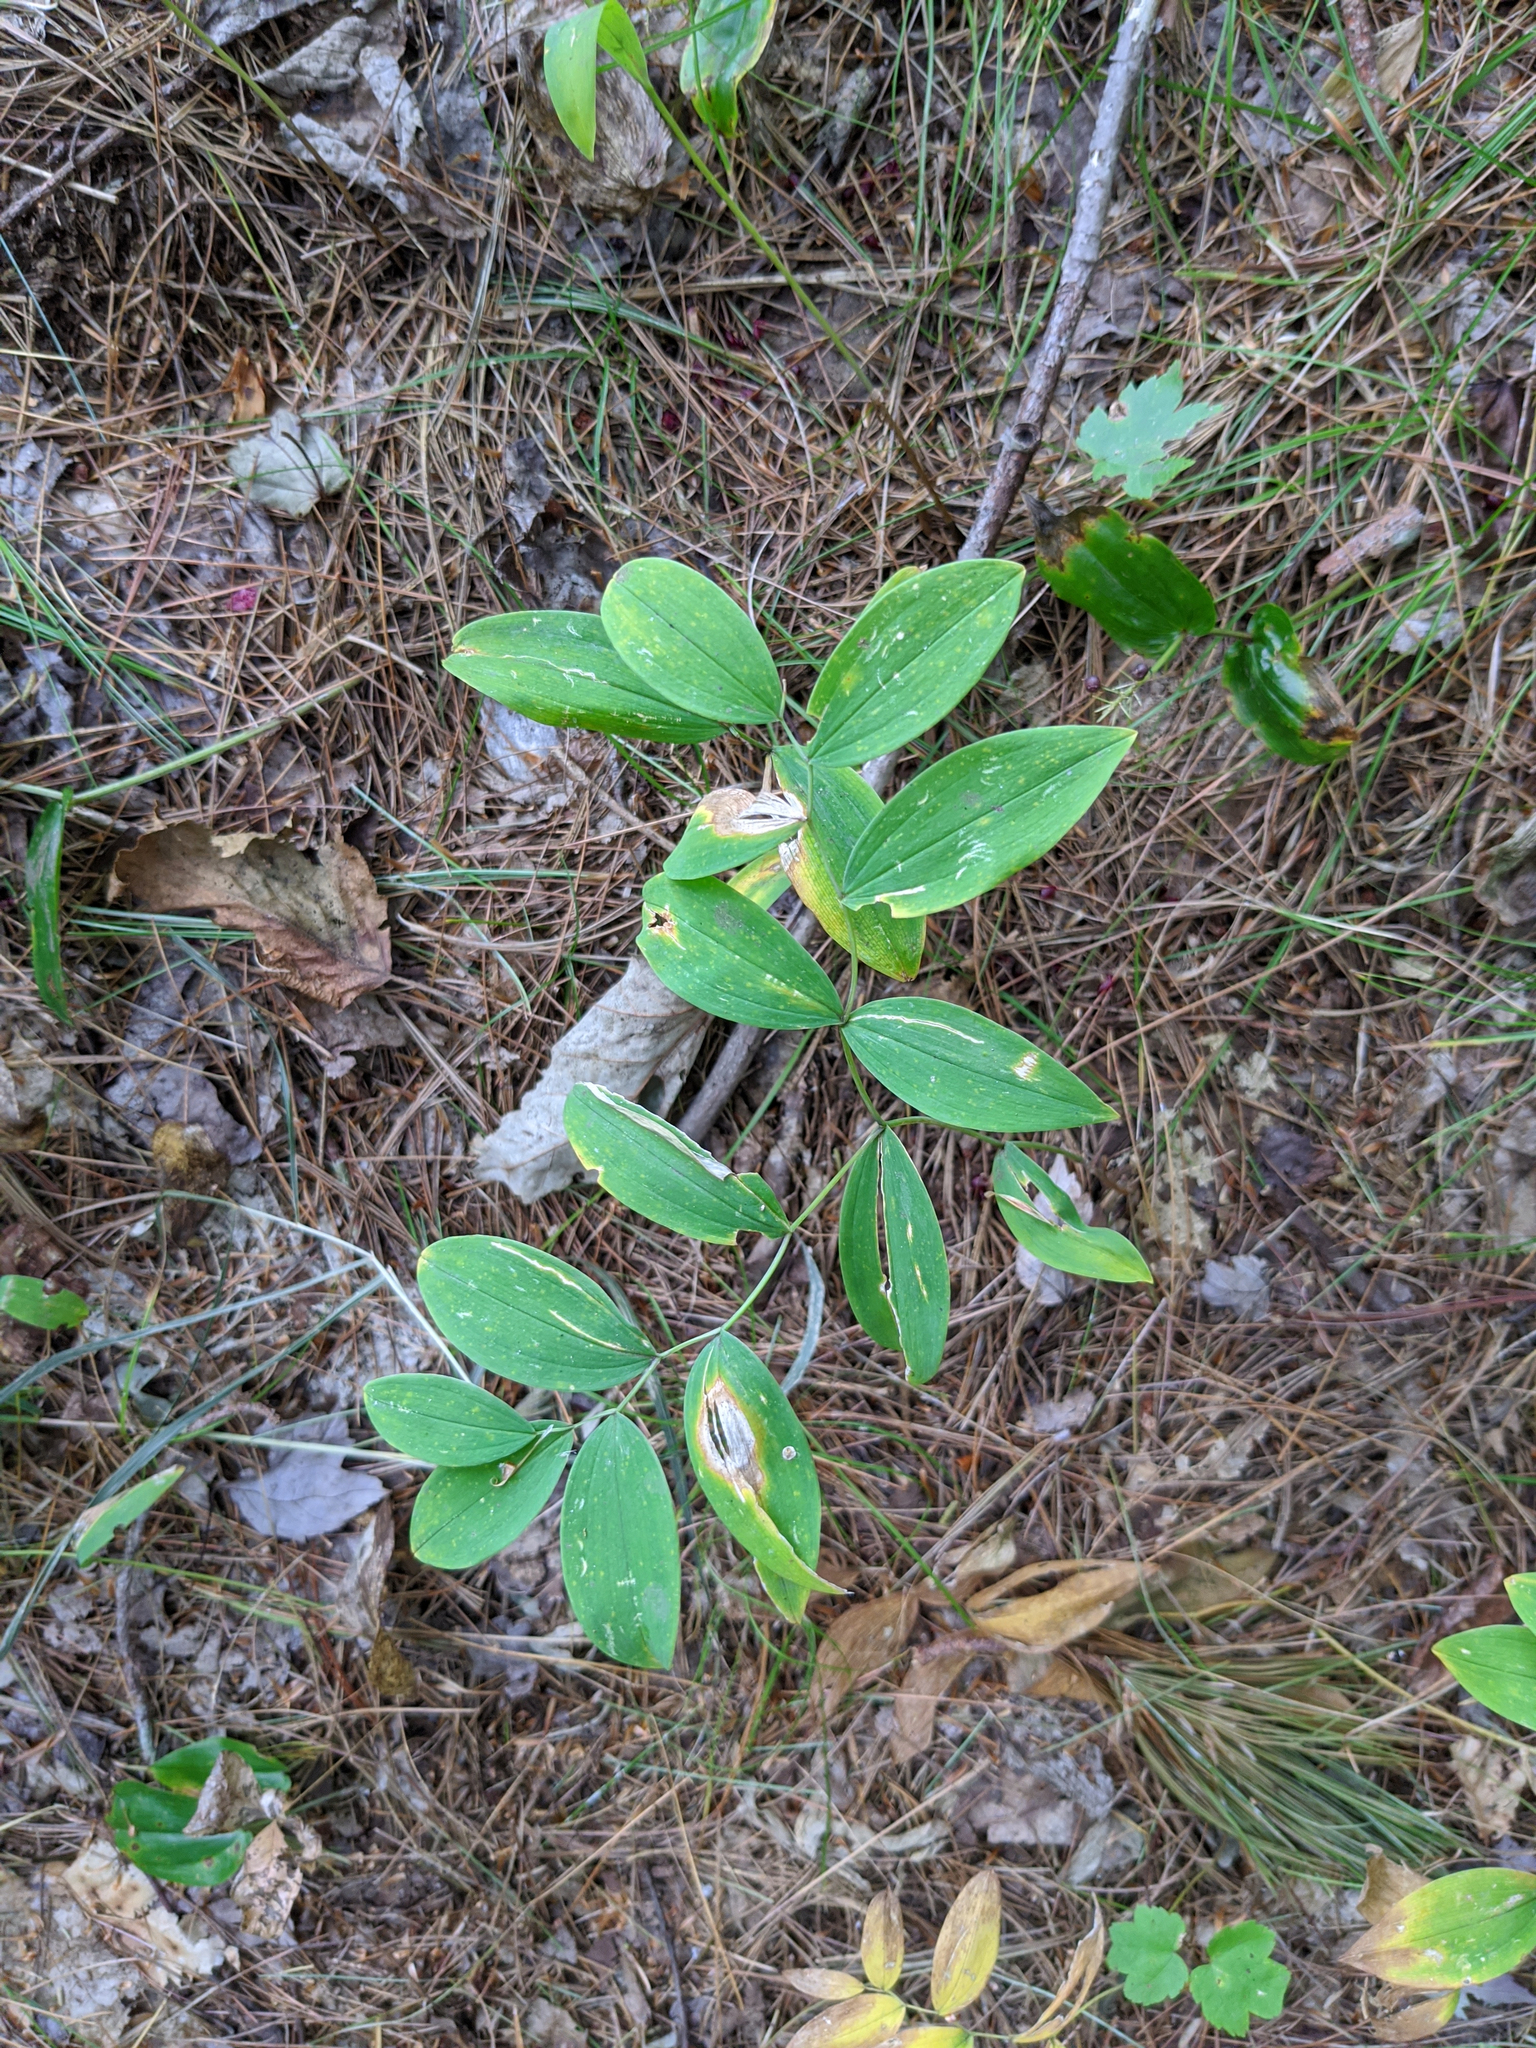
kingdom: Plantae
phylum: Tracheophyta
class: Liliopsida
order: Liliales
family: Colchicaceae
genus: Uvularia
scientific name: Uvularia sessilifolia
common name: Straw-lily
